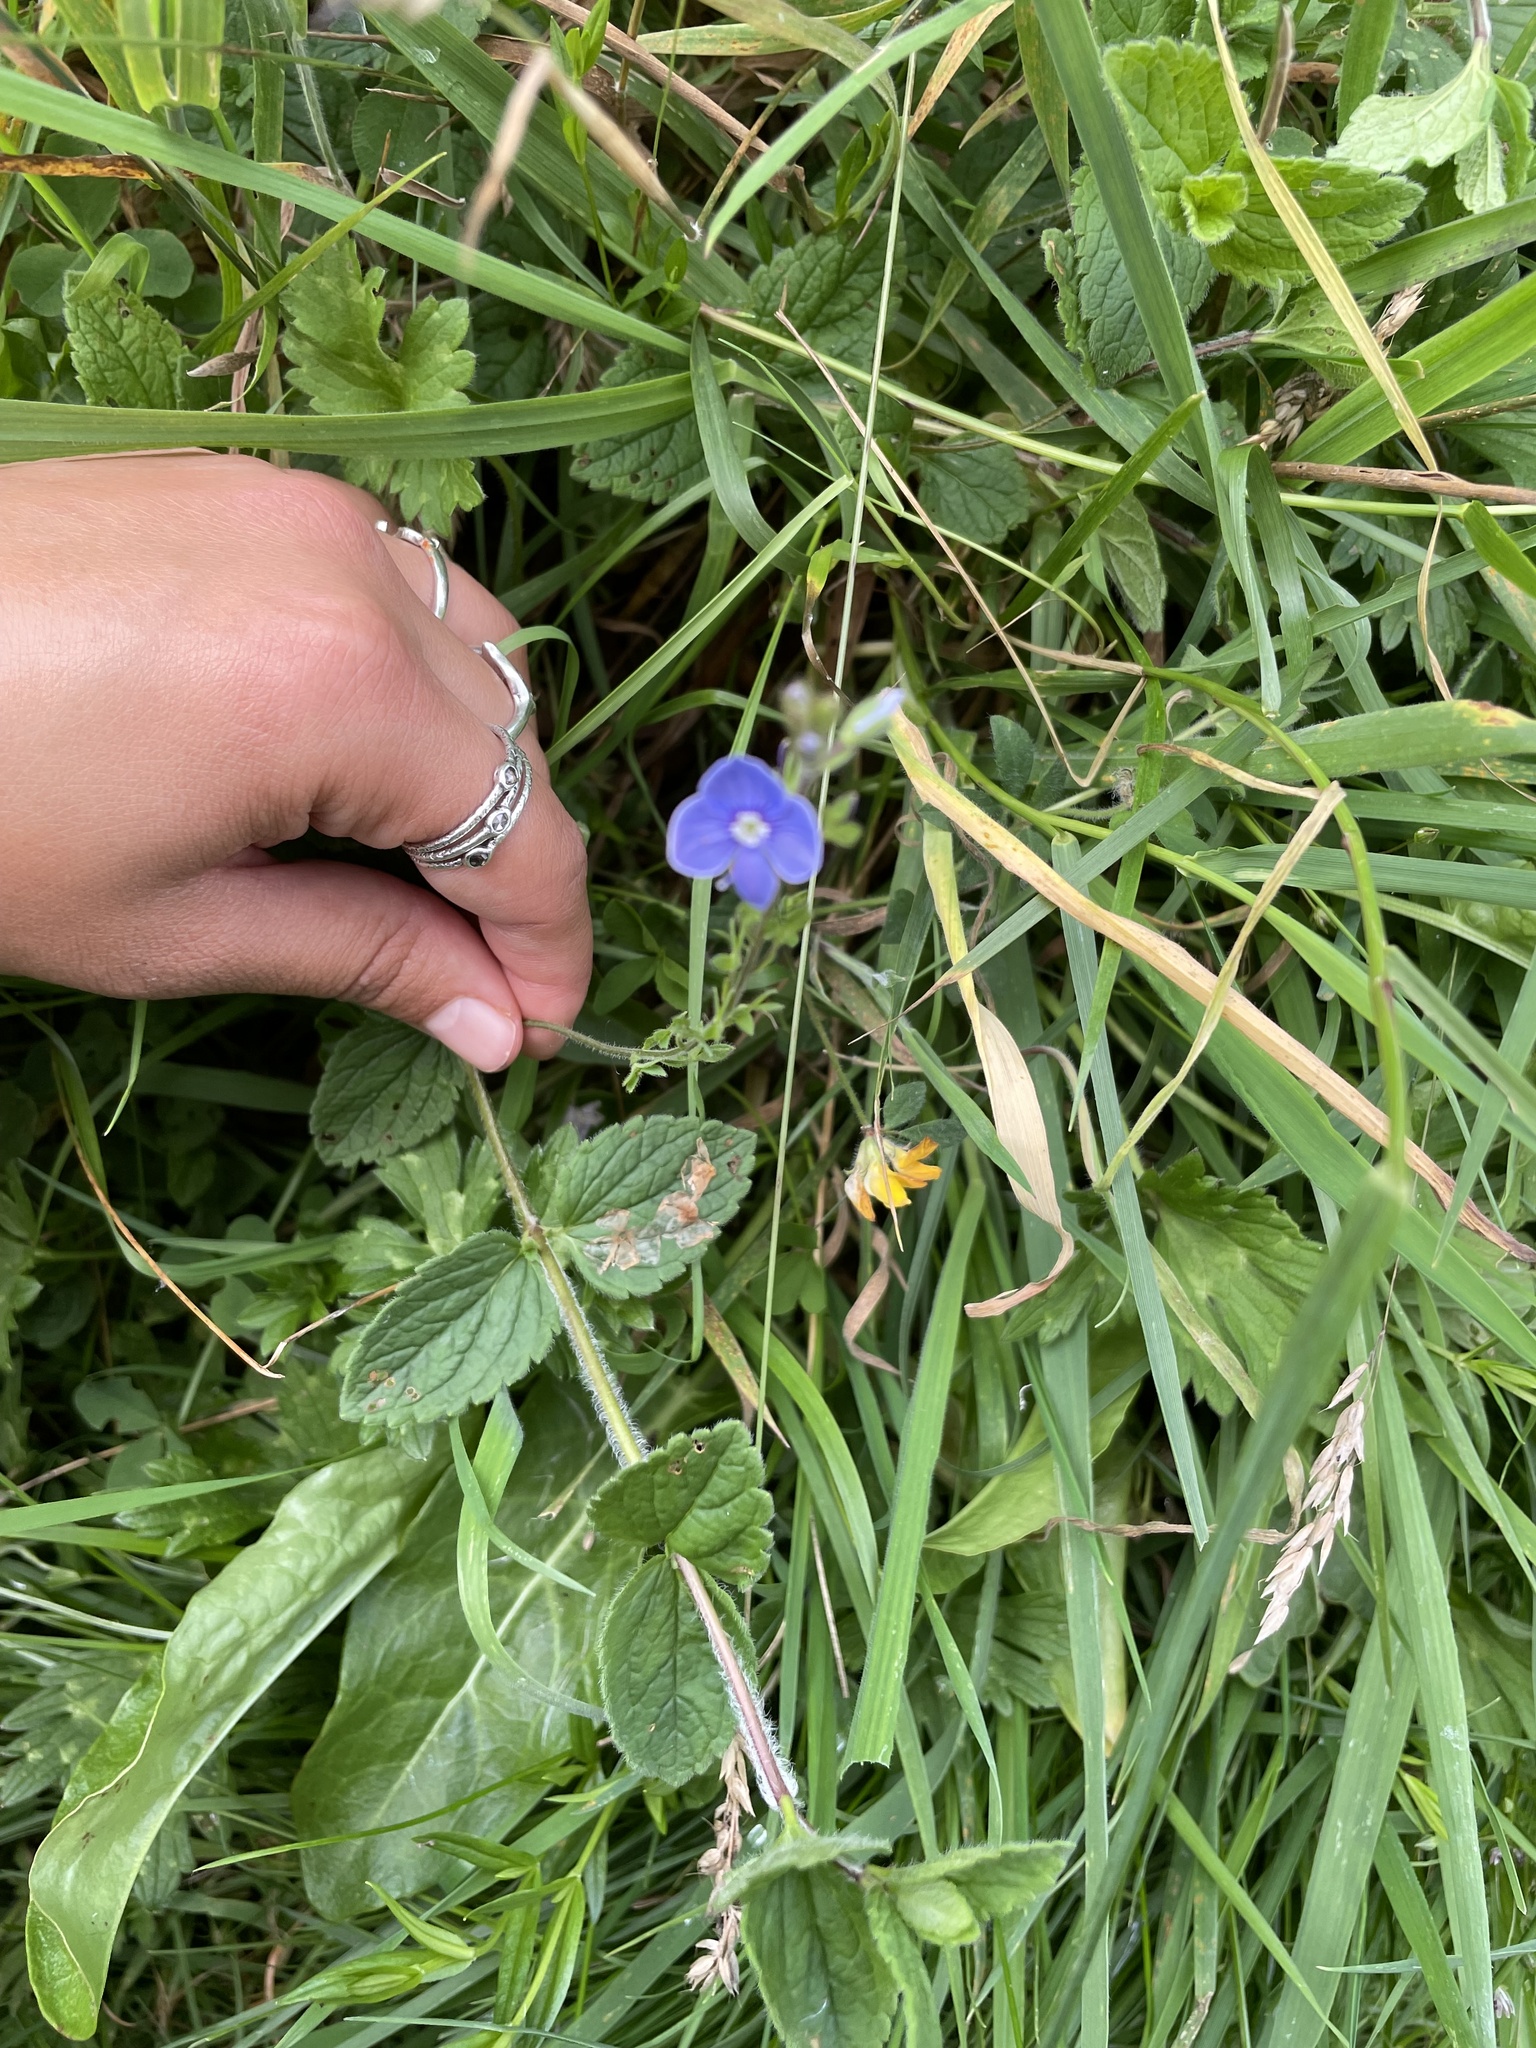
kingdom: Plantae
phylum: Tracheophyta
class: Magnoliopsida
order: Lamiales
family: Plantaginaceae
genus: Veronica
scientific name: Veronica chamaedrys
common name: Germander speedwell
